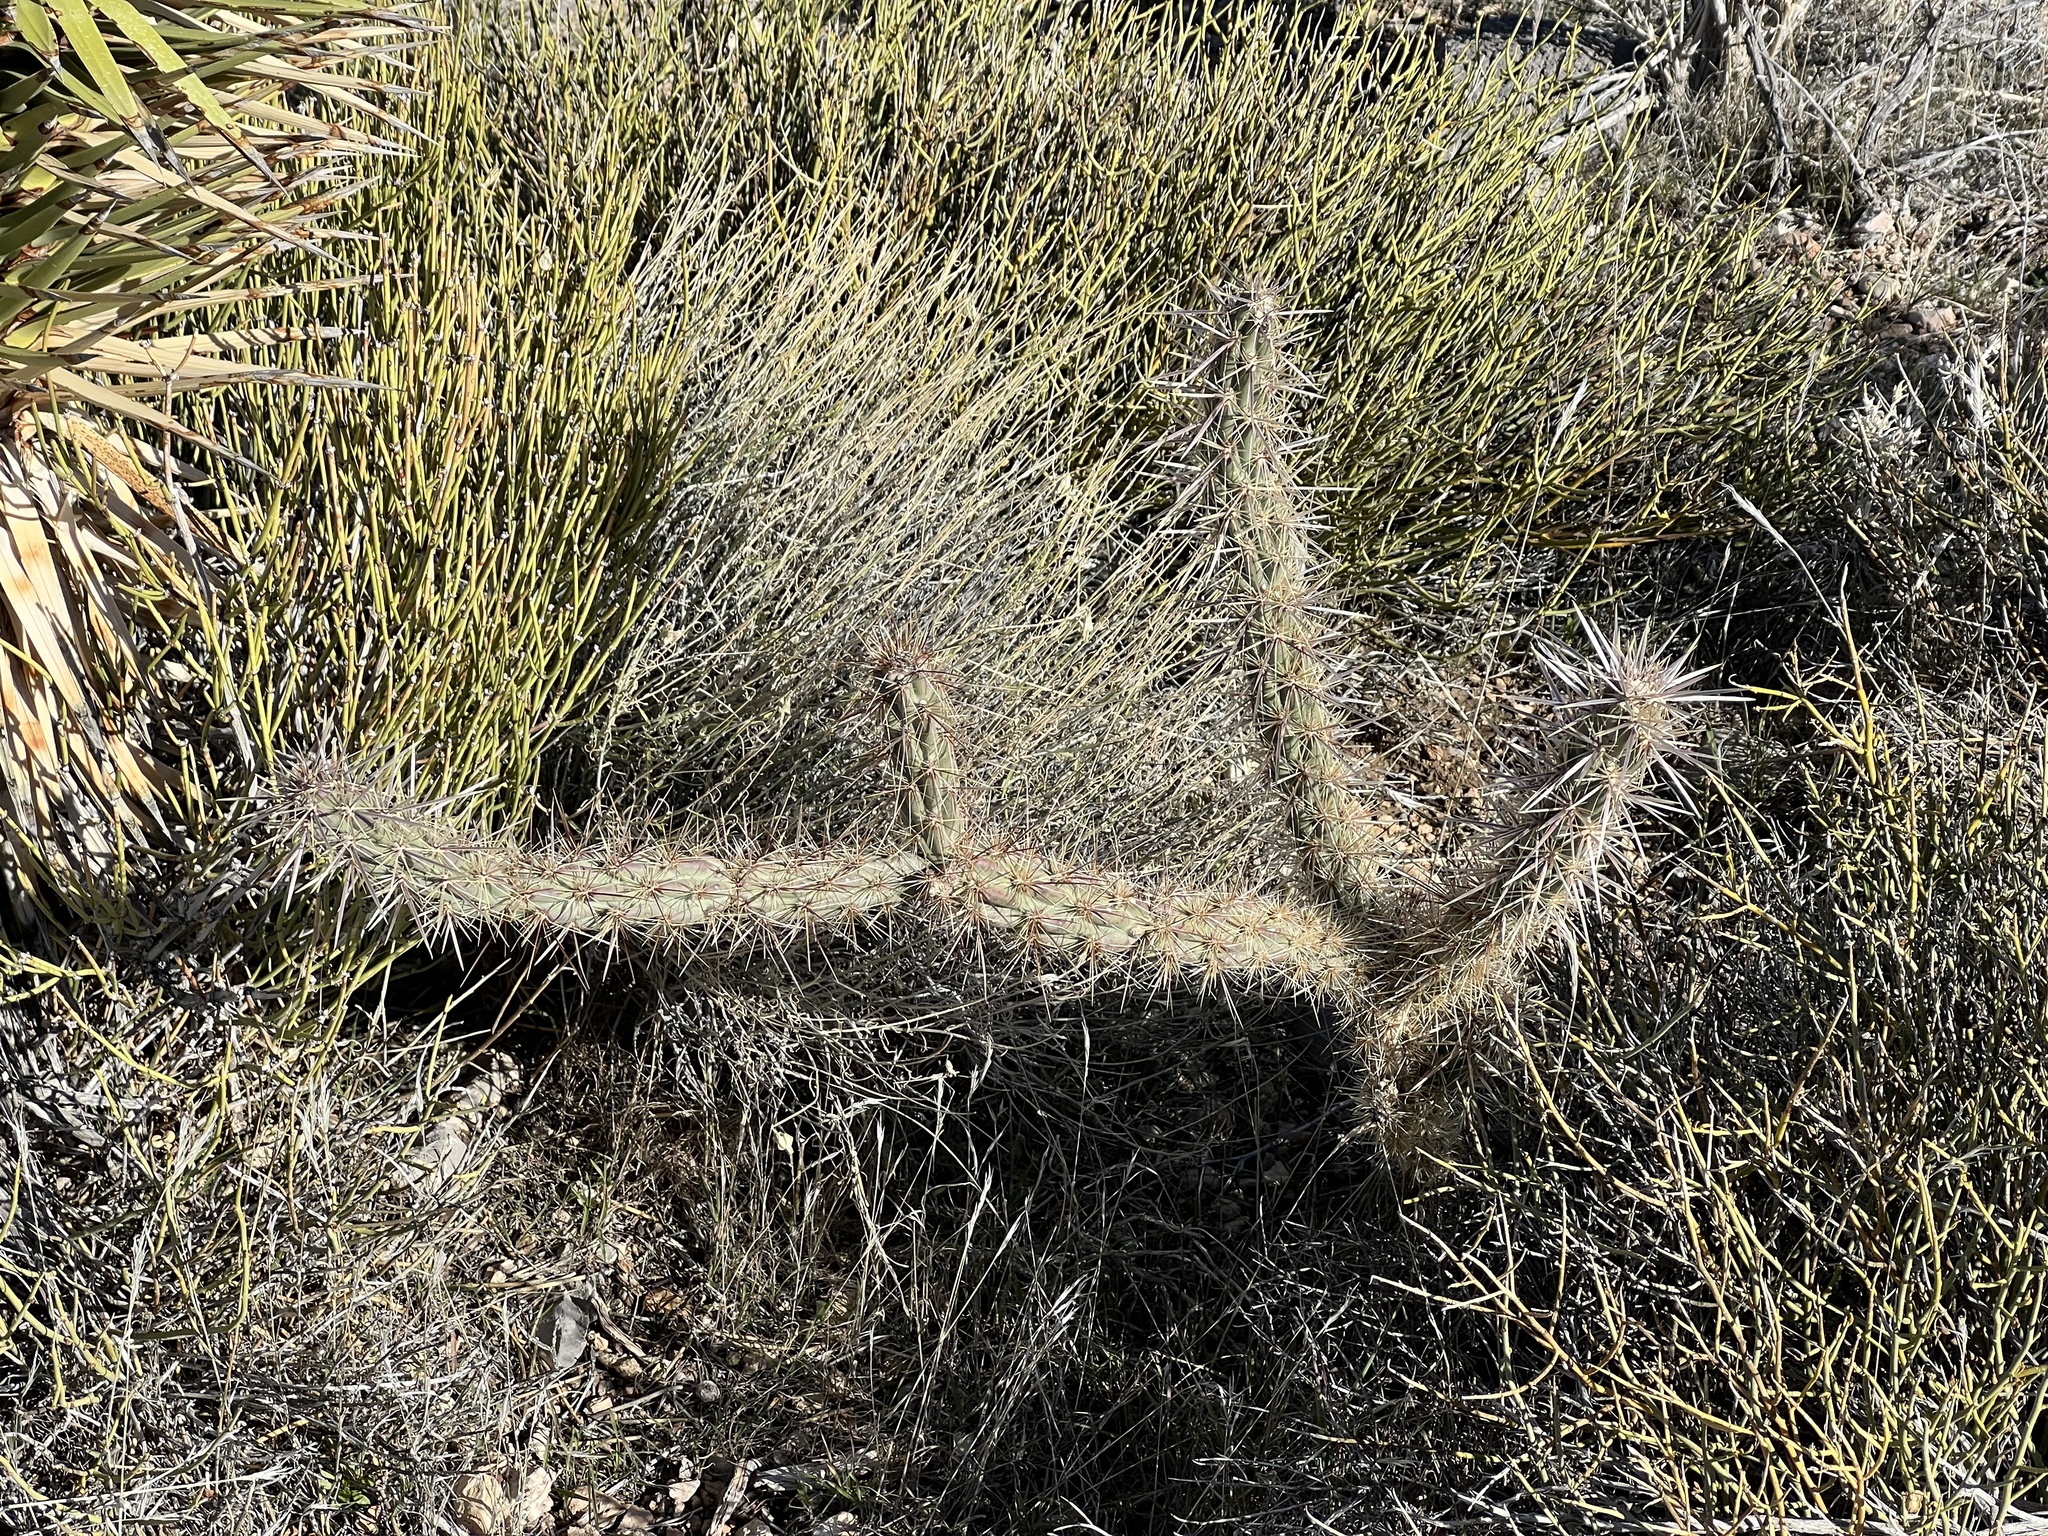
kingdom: Plantae
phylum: Tracheophyta
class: Magnoliopsida
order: Caryophyllales
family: Cactaceae
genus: Cylindropuntia
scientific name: Cylindropuntia acanthocarpa
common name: Buckhorn cholla
